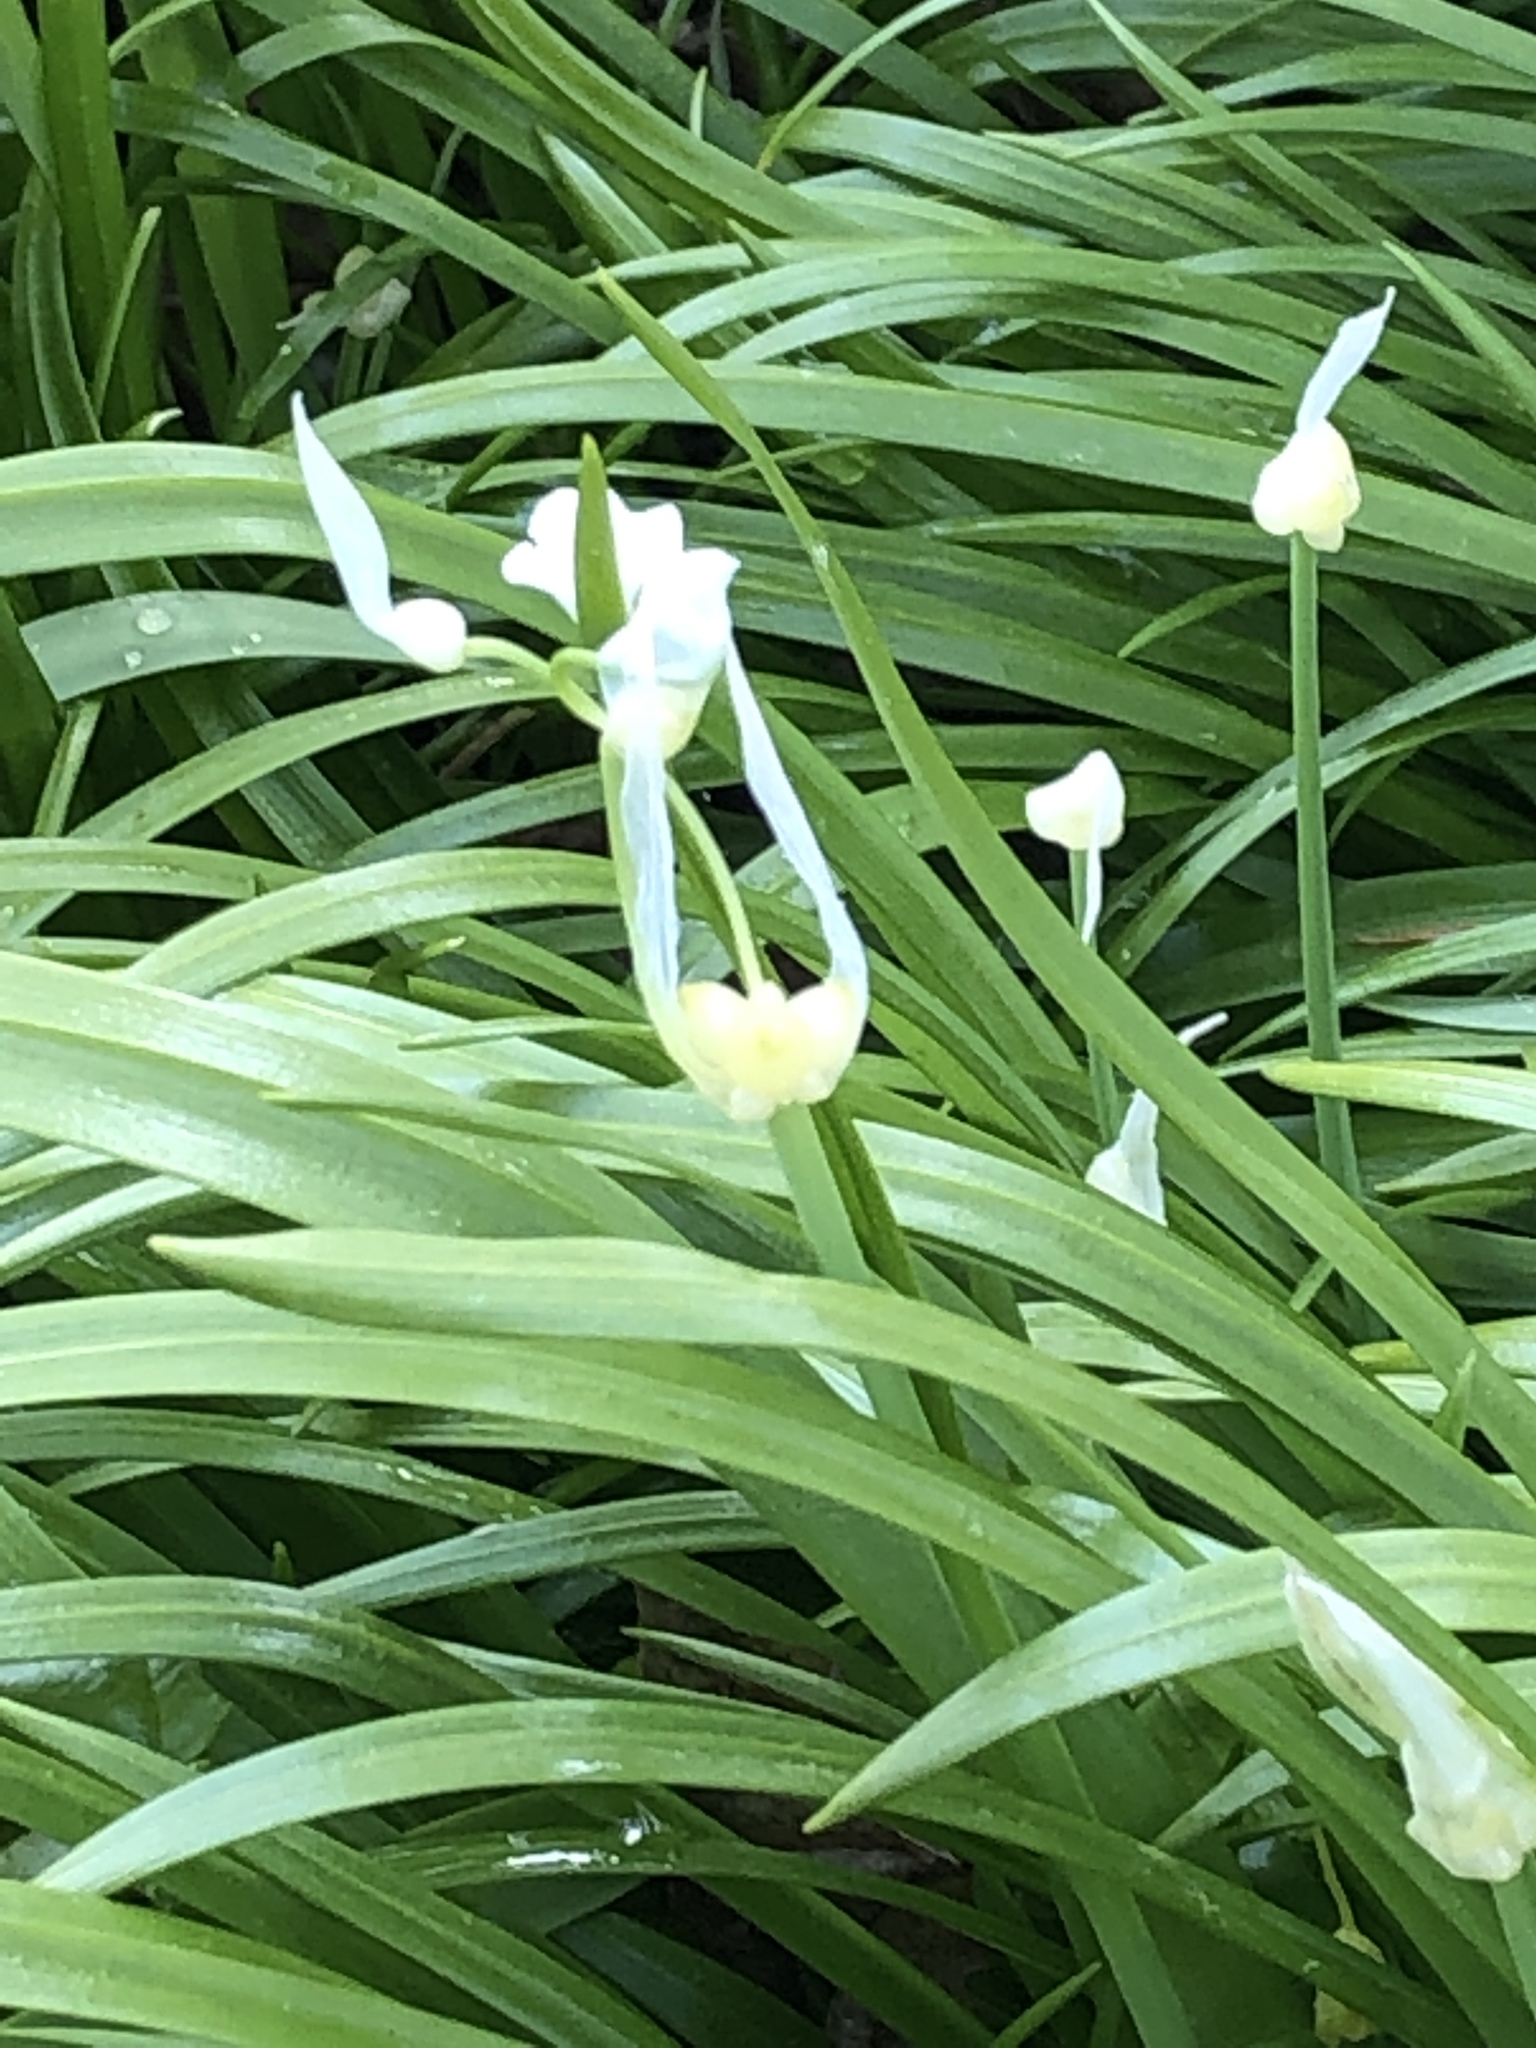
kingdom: Plantae
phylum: Tracheophyta
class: Liliopsida
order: Asparagales
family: Amaryllidaceae
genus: Allium
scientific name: Allium paradoxum
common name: Few-flowered garlic
